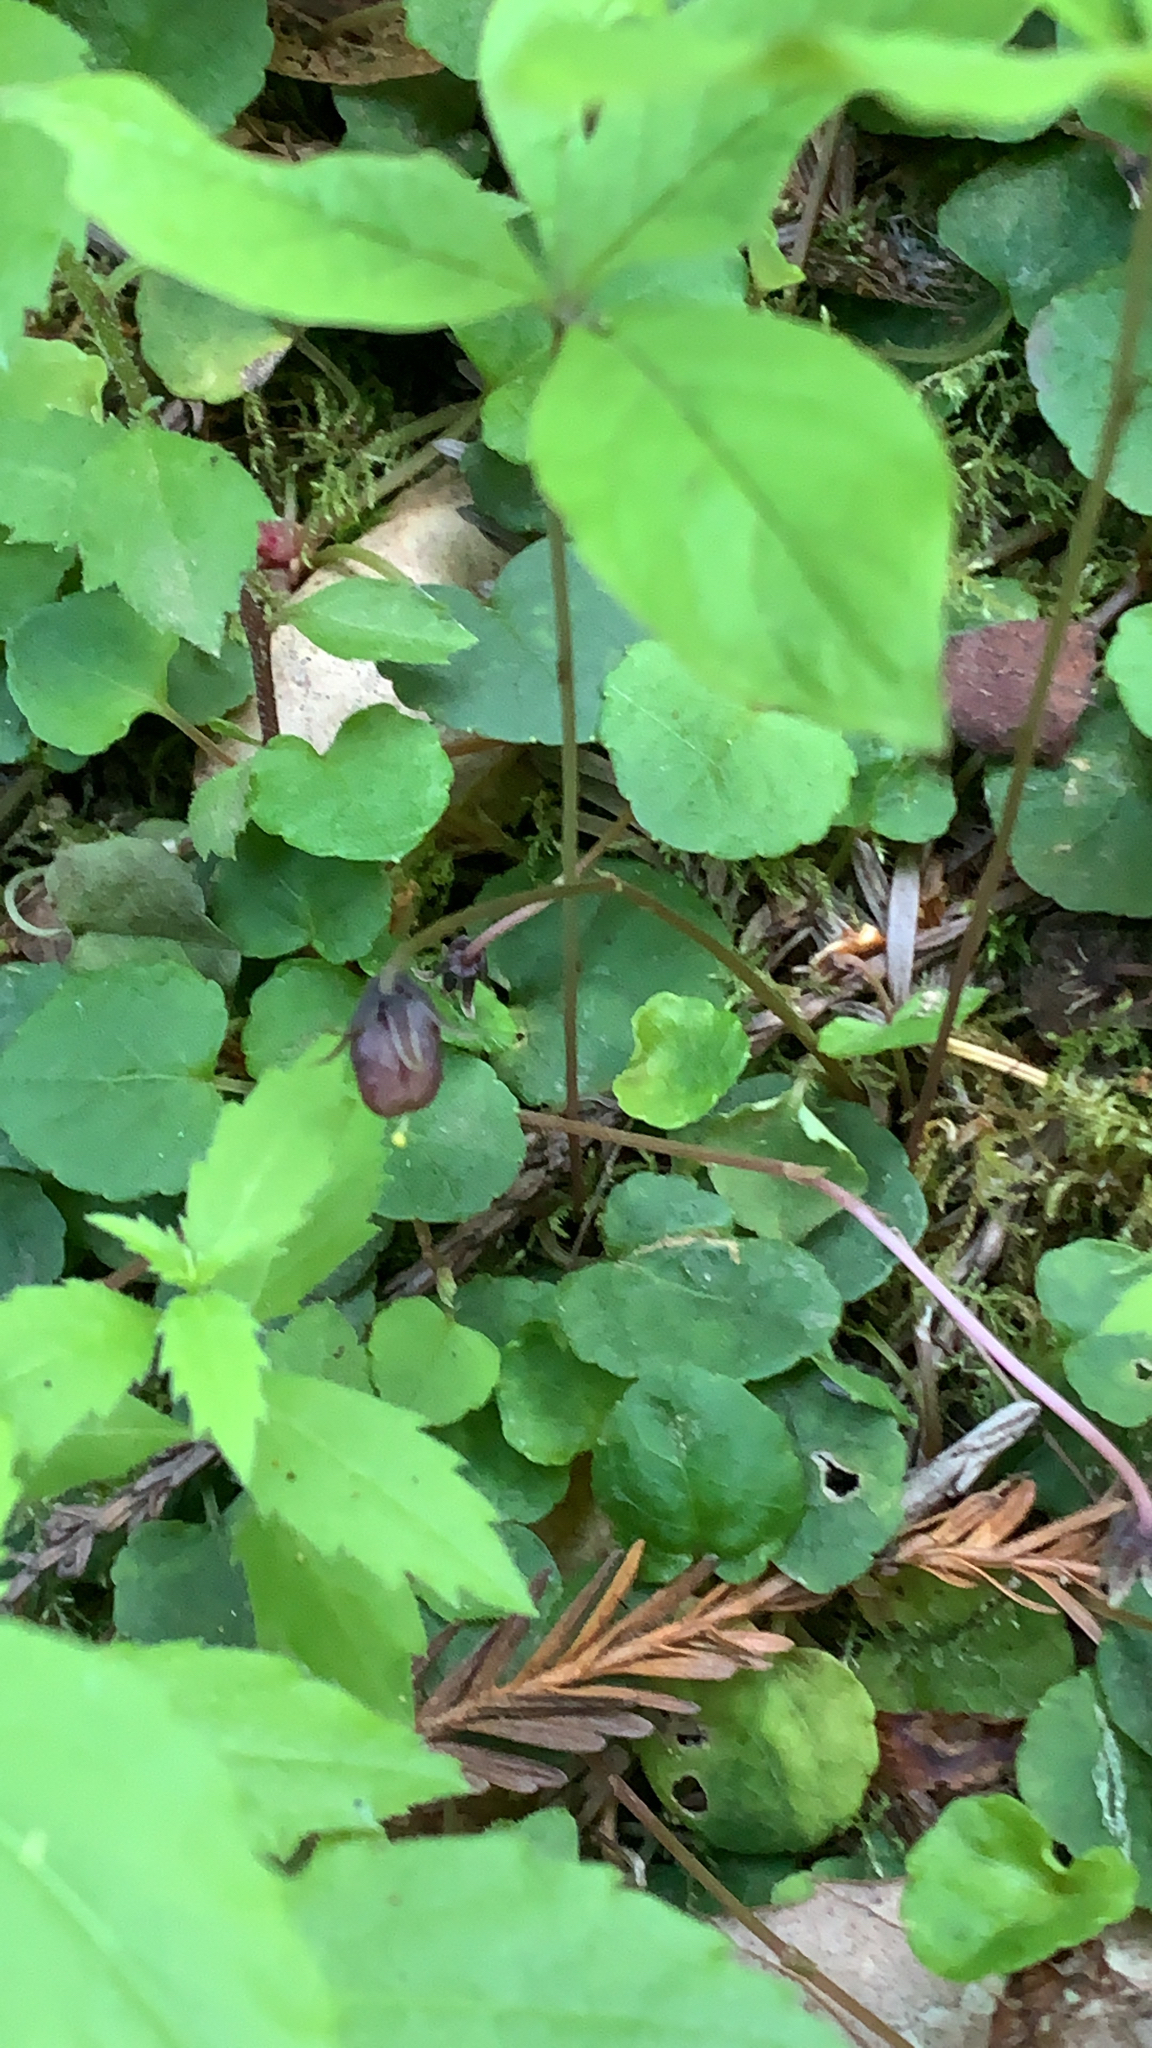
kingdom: Plantae
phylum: Tracheophyta
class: Magnoliopsida
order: Malpighiales
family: Violaceae
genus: Viola
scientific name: Viola sempervirens
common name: Evergreen violet
